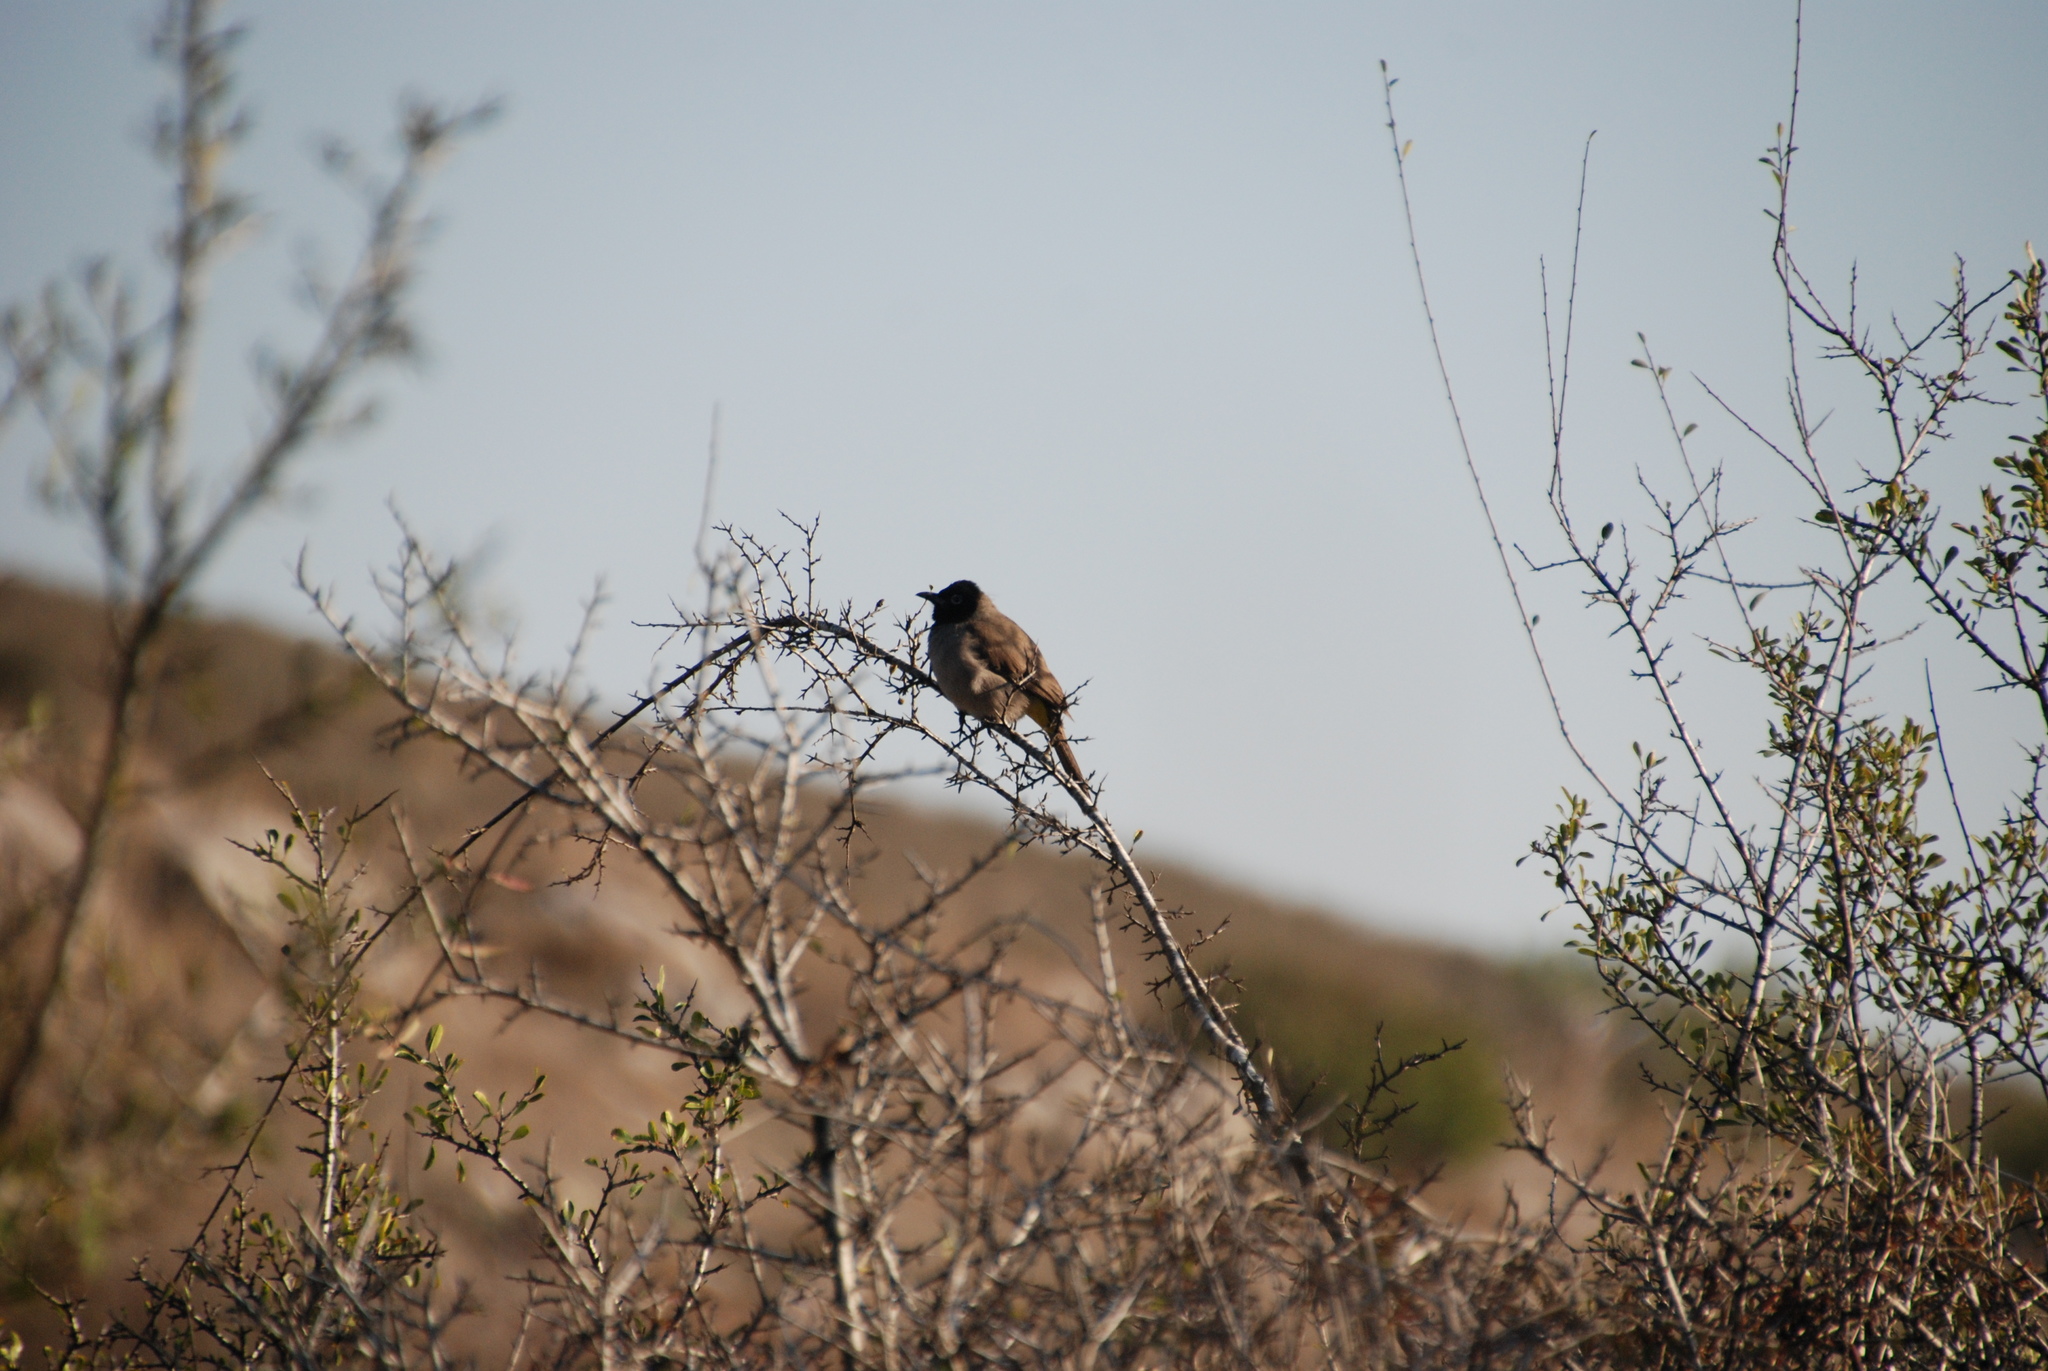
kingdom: Animalia
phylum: Chordata
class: Aves
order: Passeriformes
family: Pycnonotidae
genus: Pycnonotus
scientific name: Pycnonotus xanthopygos
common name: White-spectacled bulbul
